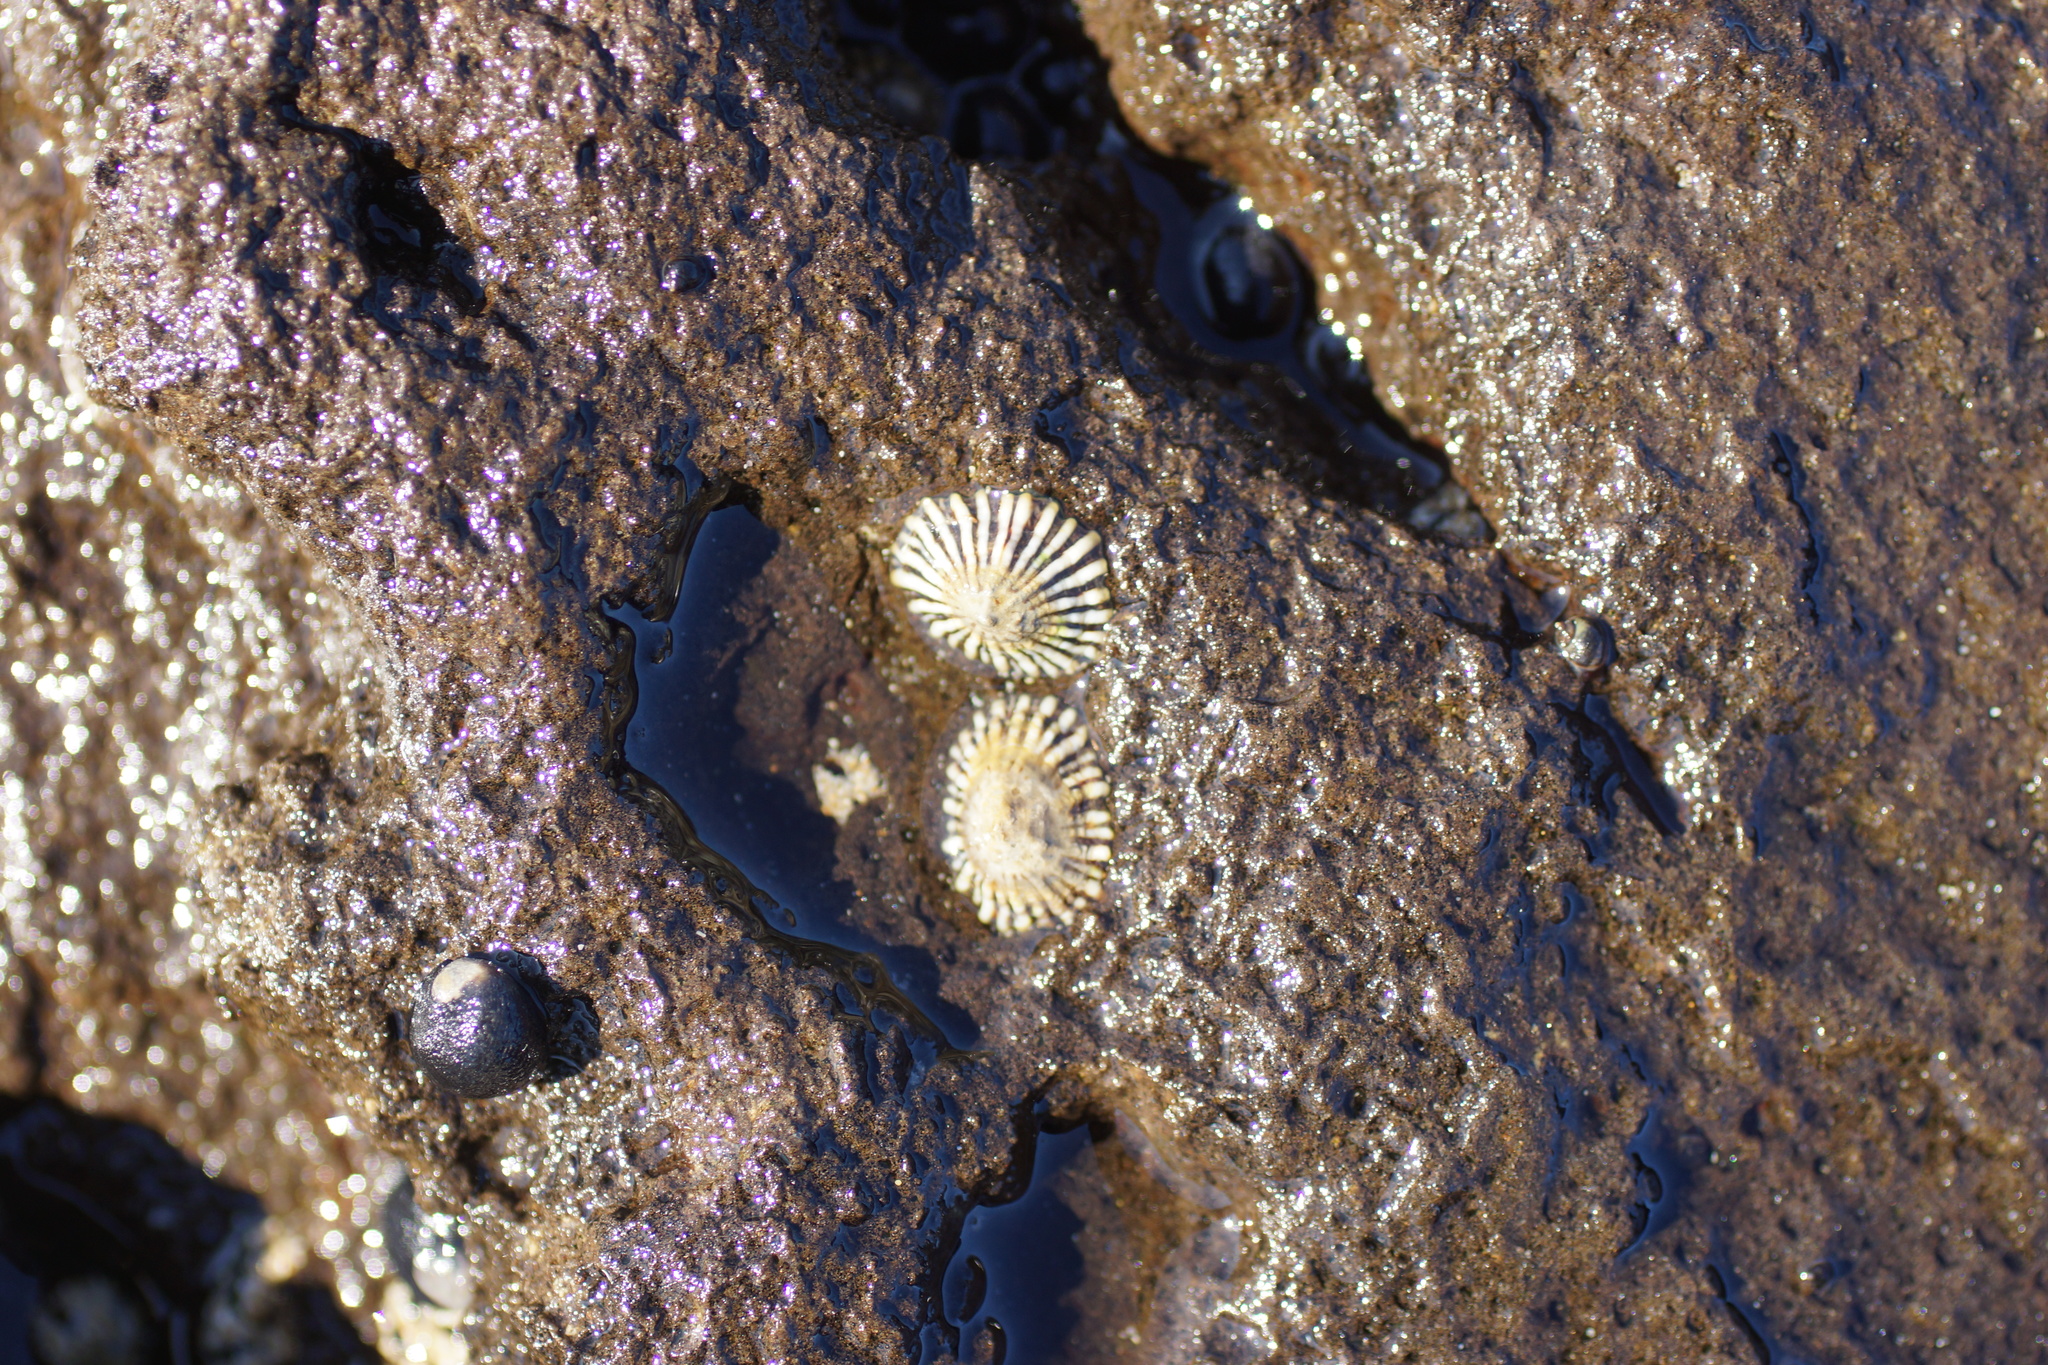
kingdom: Animalia
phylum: Mollusca
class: Gastropoda
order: Siphonariida
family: Siphonariidae
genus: Siphonaria
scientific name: Siphonaria diemenensis
